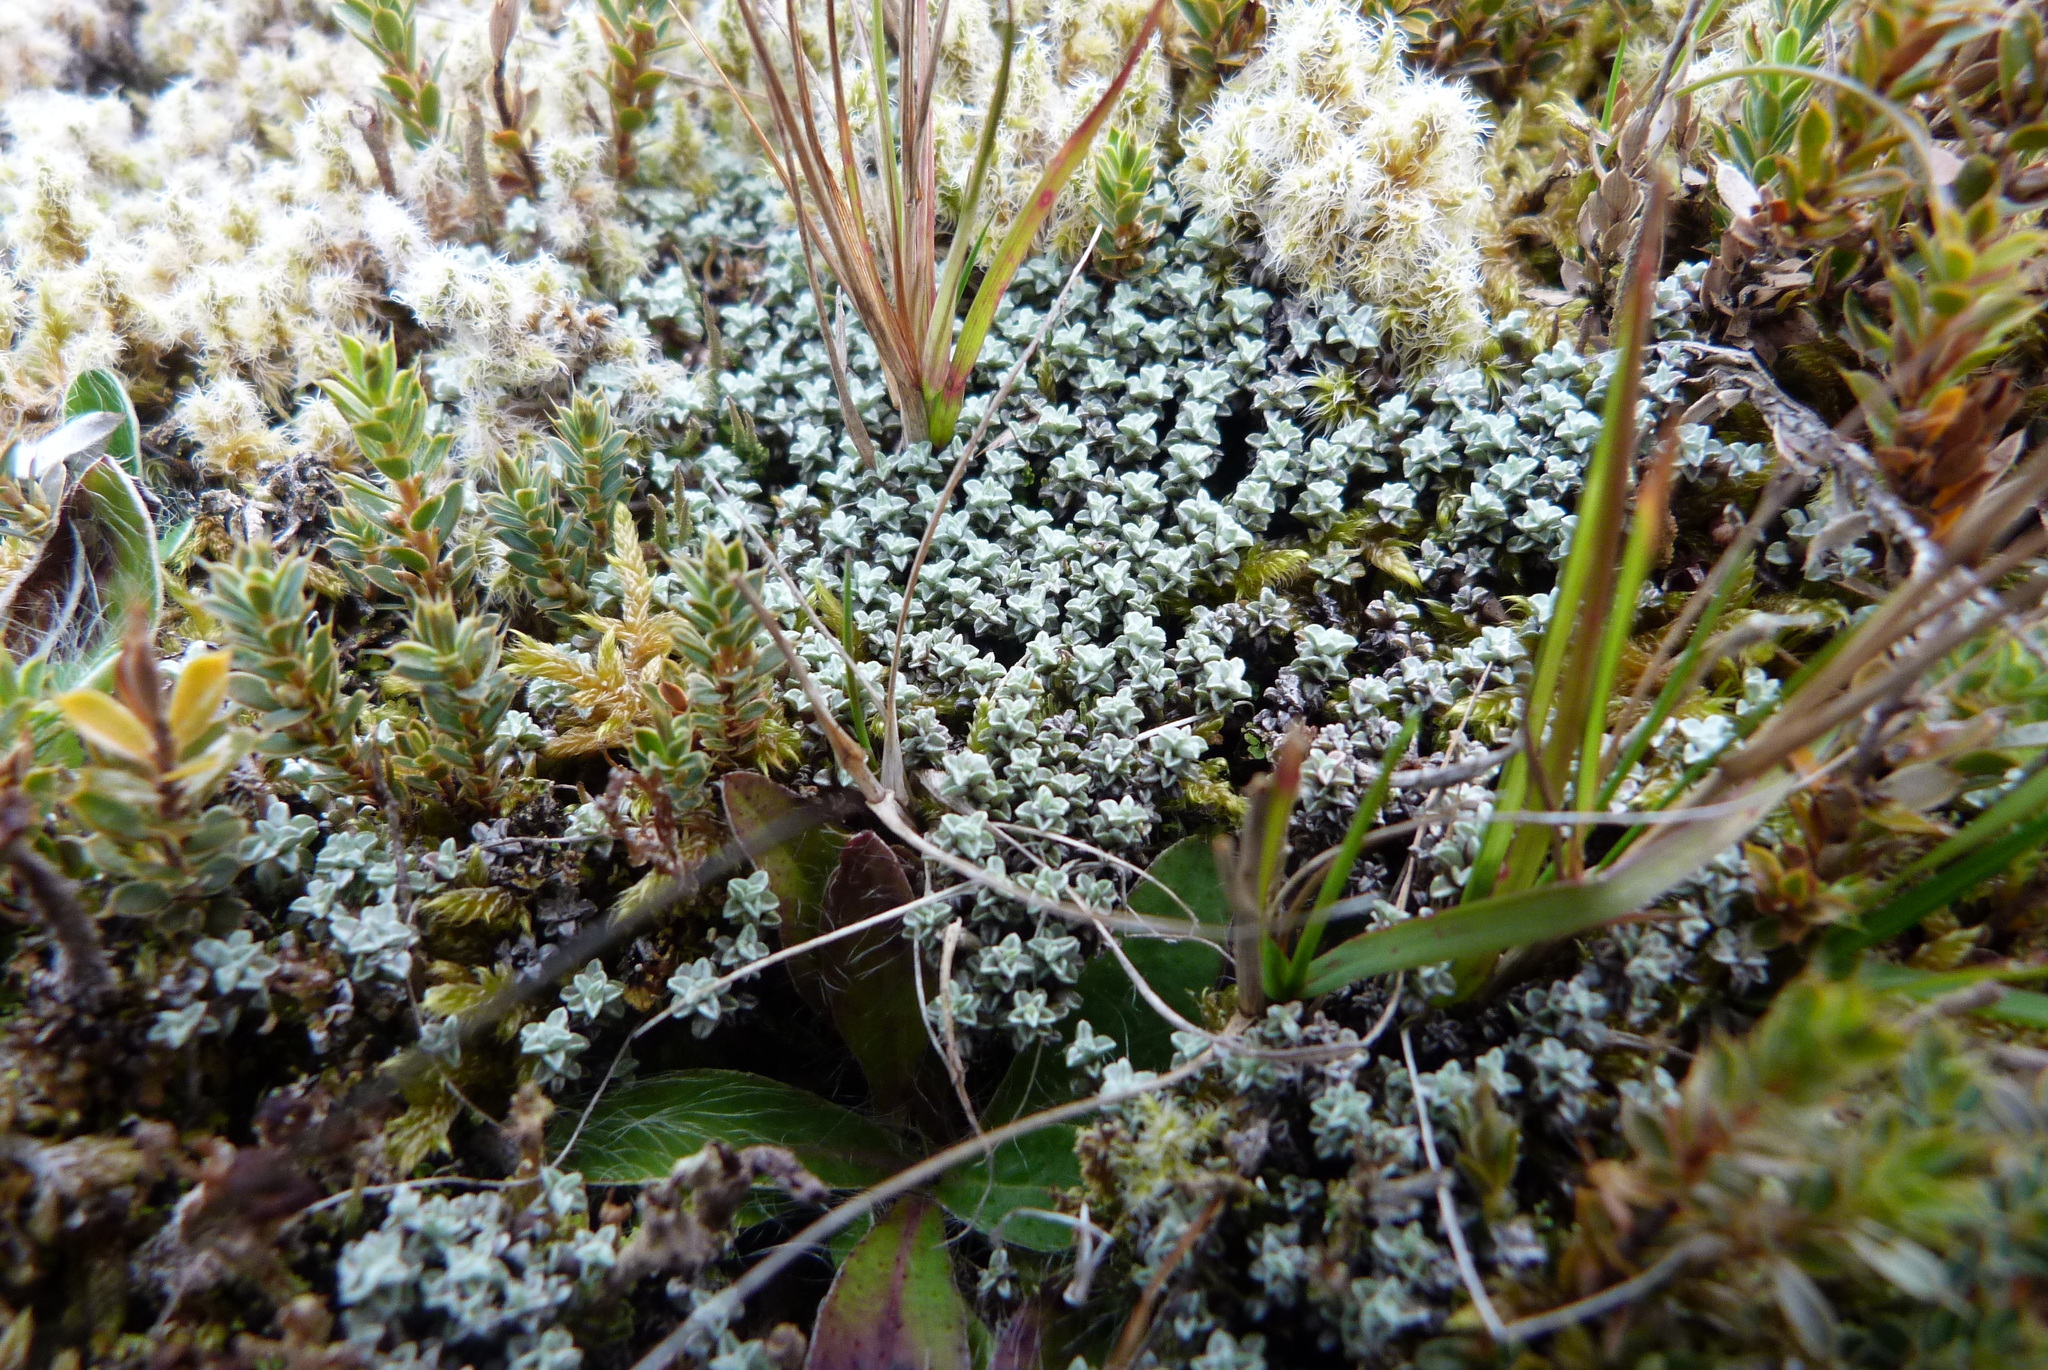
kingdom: Plantae
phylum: Tracheophyta
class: Magnoliopsida
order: Asterales
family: Asteraceae
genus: Raoulia
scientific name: Raoulia hookeri
